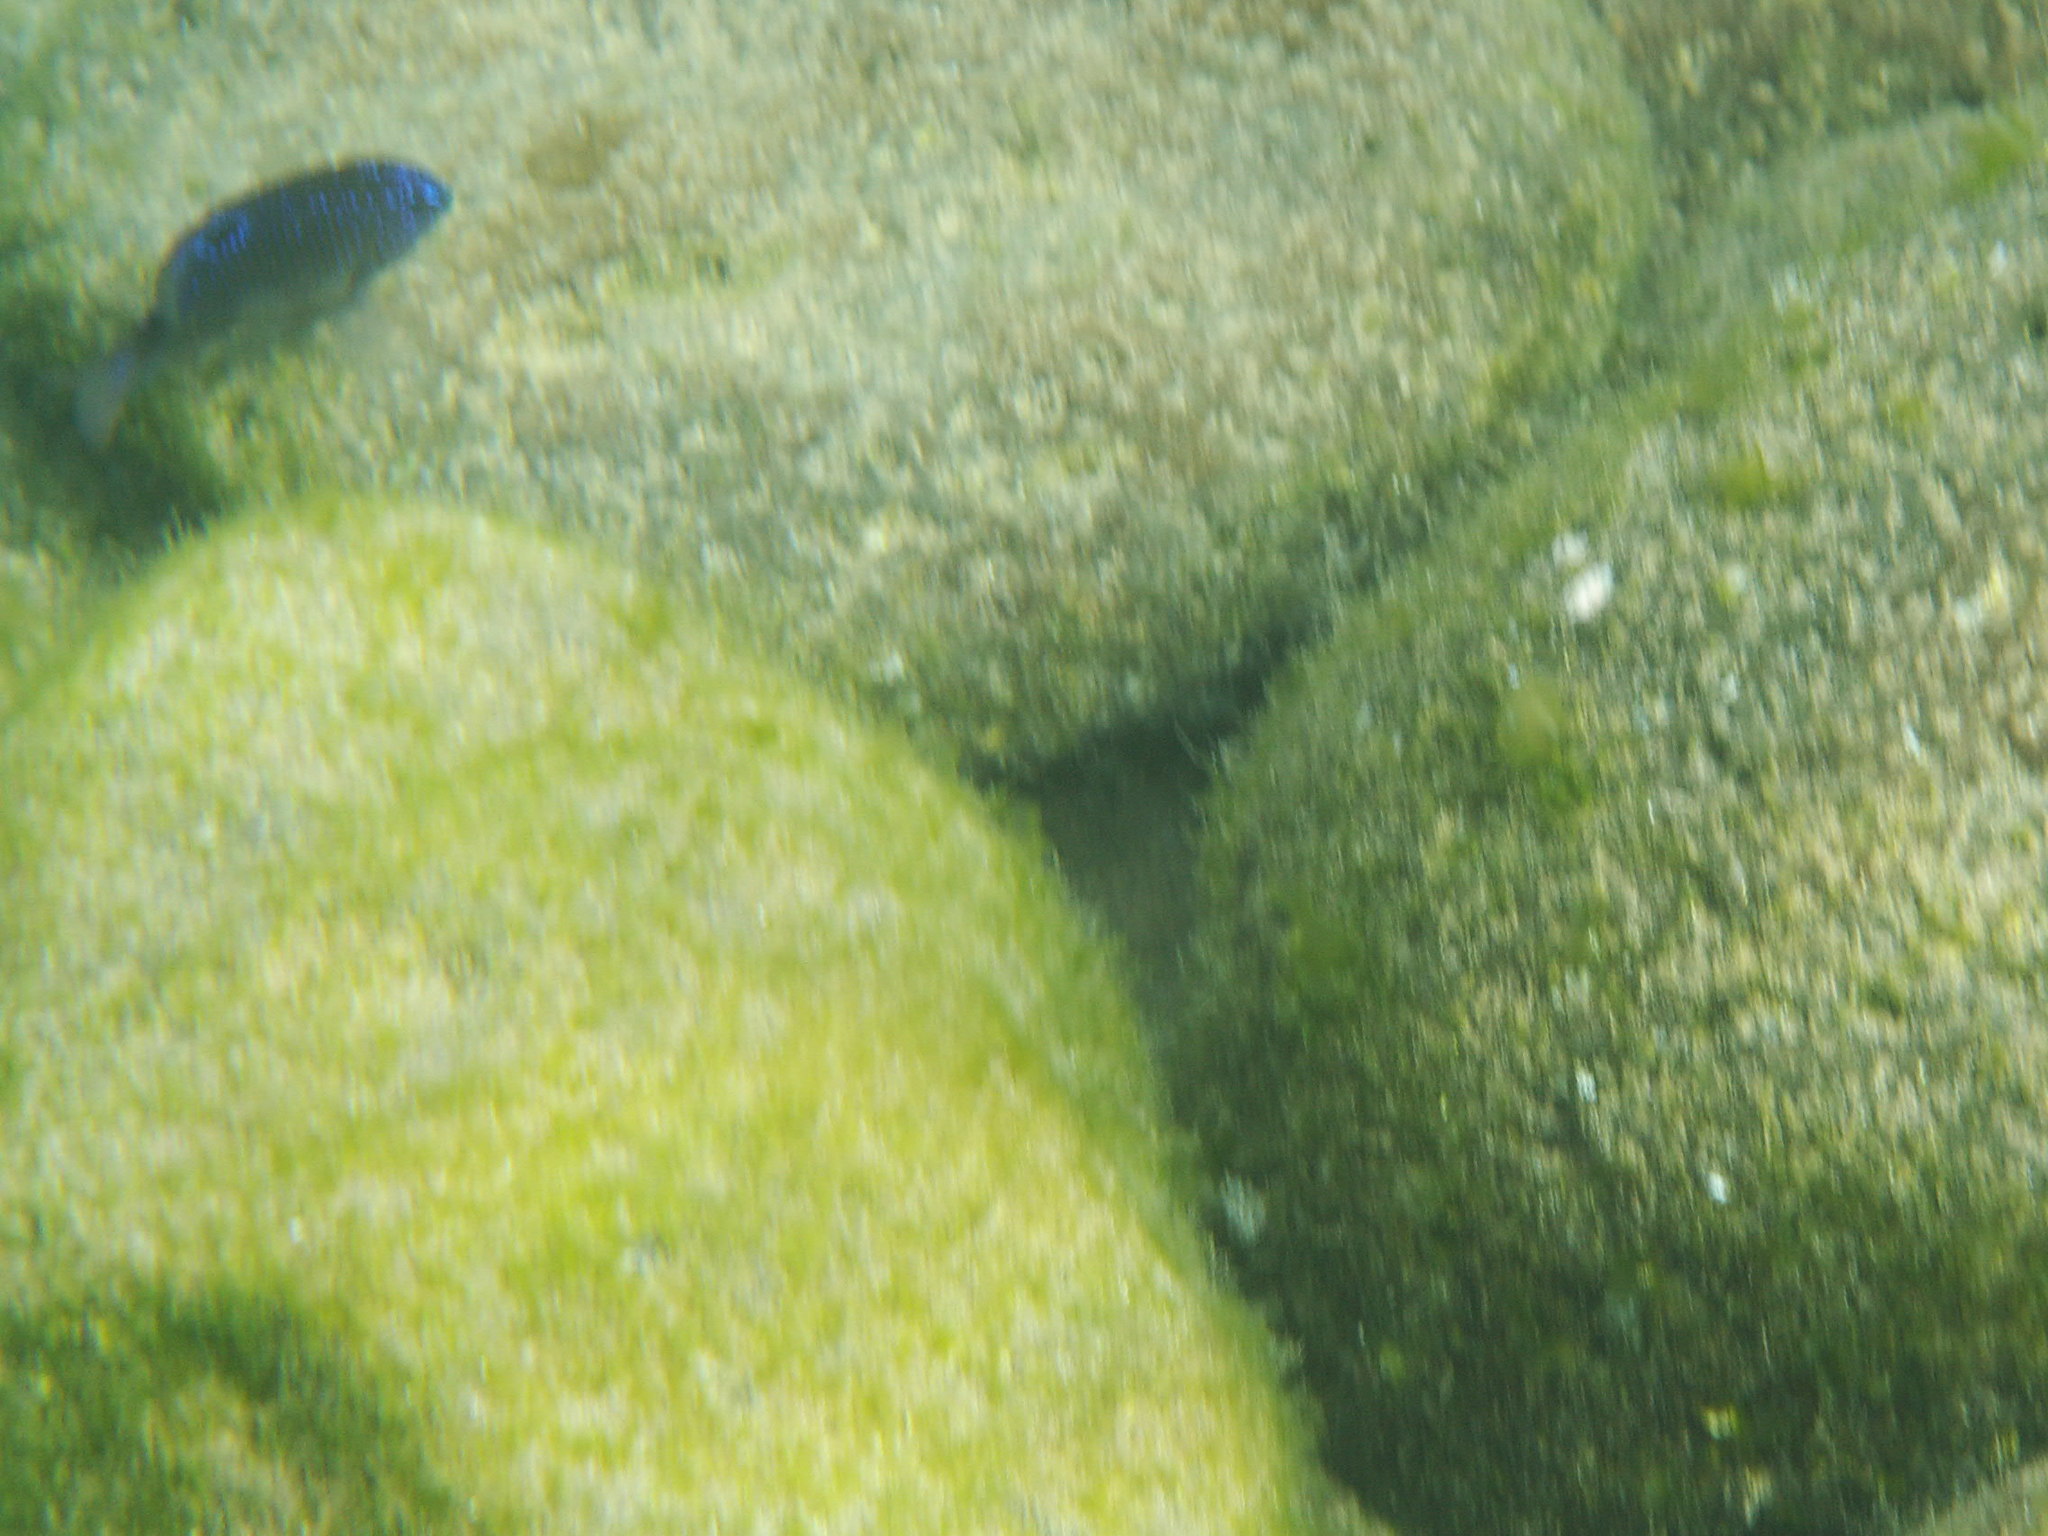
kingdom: Animalia
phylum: Chordata
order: Perciformes
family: Pomacentridae
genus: Stegastes
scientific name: Stegastes imbricatus
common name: Cape verde gregory
